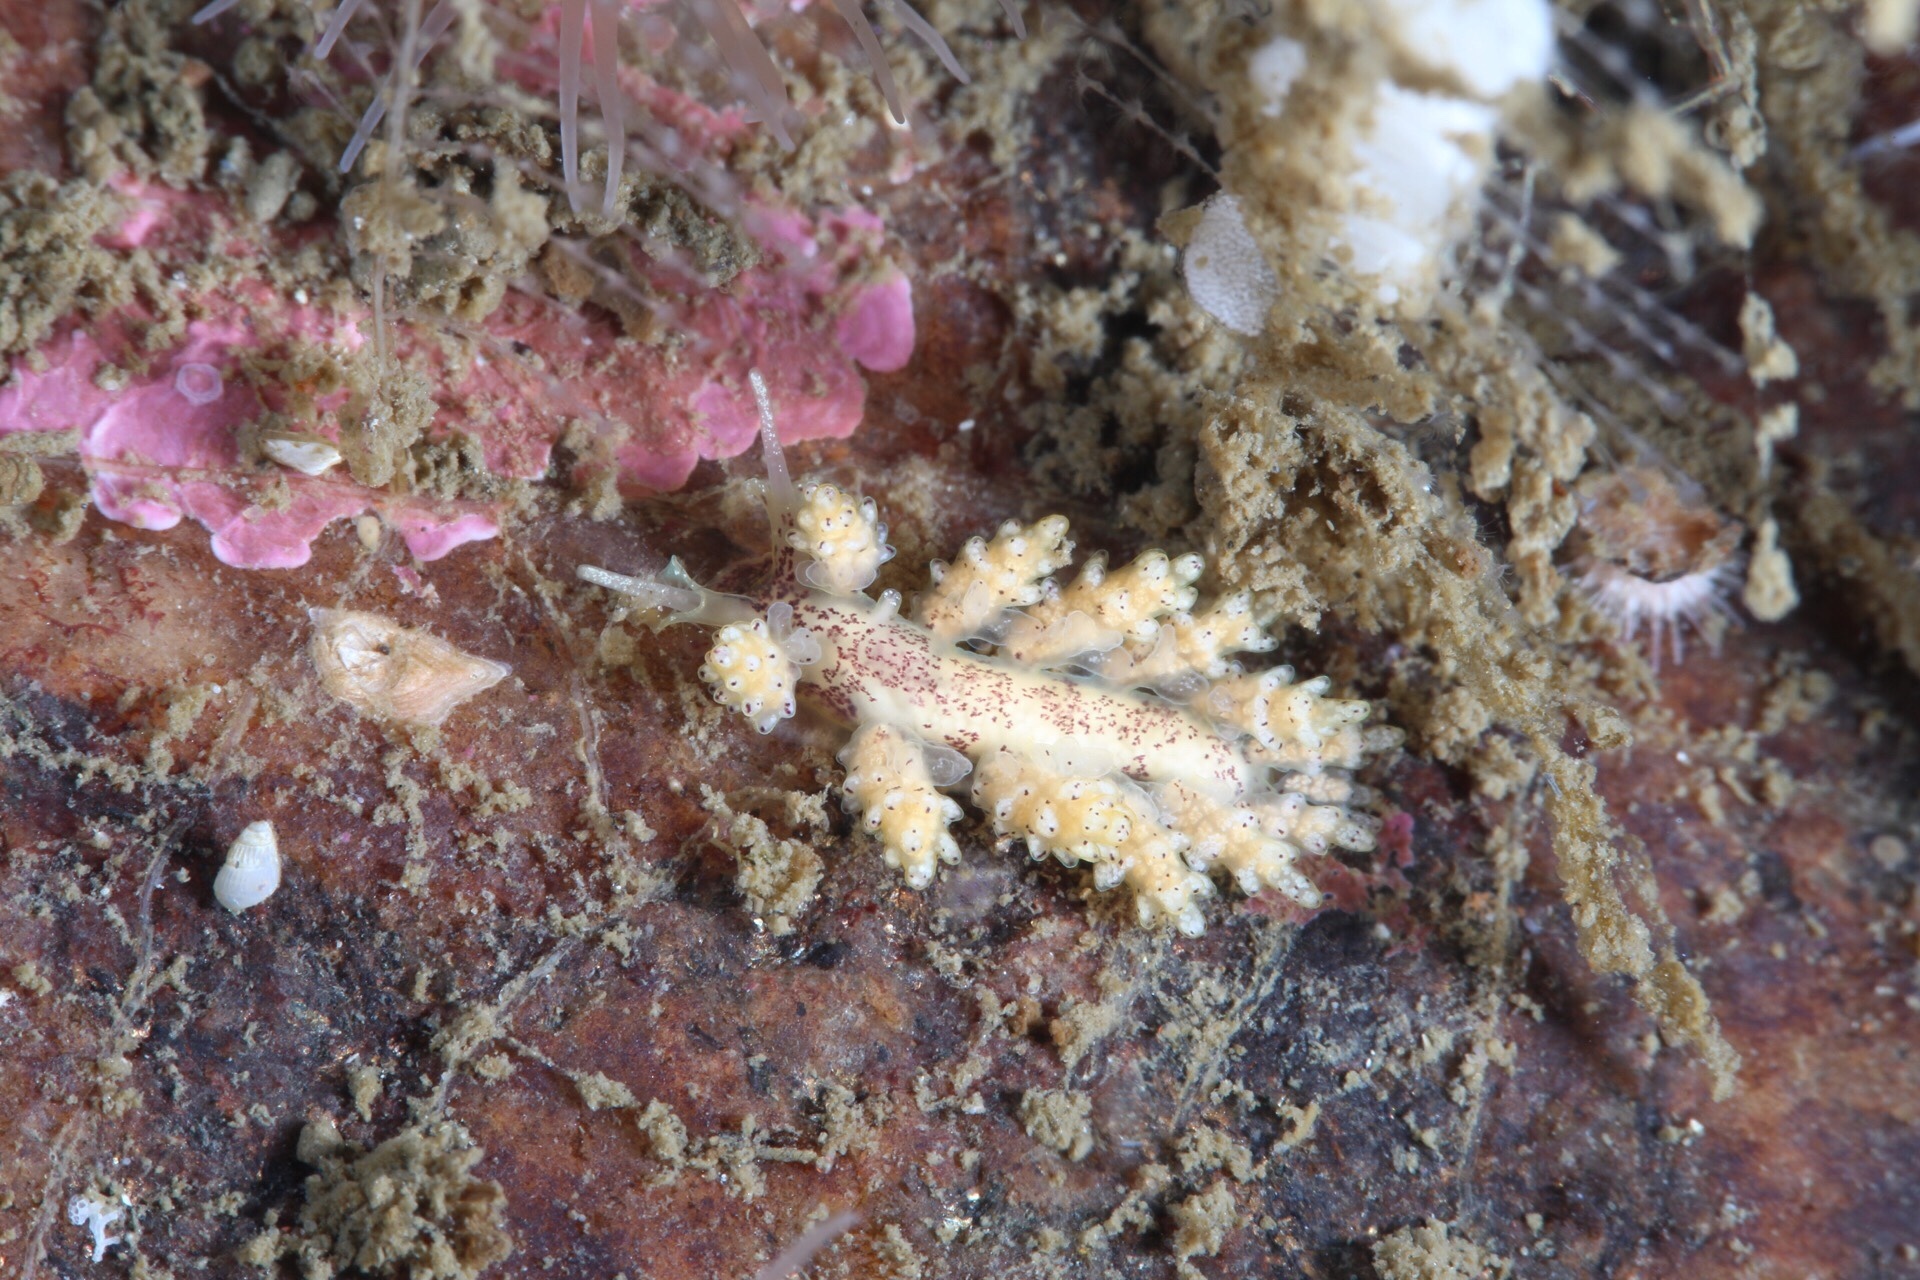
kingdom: Animalia
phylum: Mollusca
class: Gastropoda
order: Nudibranchia
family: Dotidae
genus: Doto
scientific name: Doto dunnei
